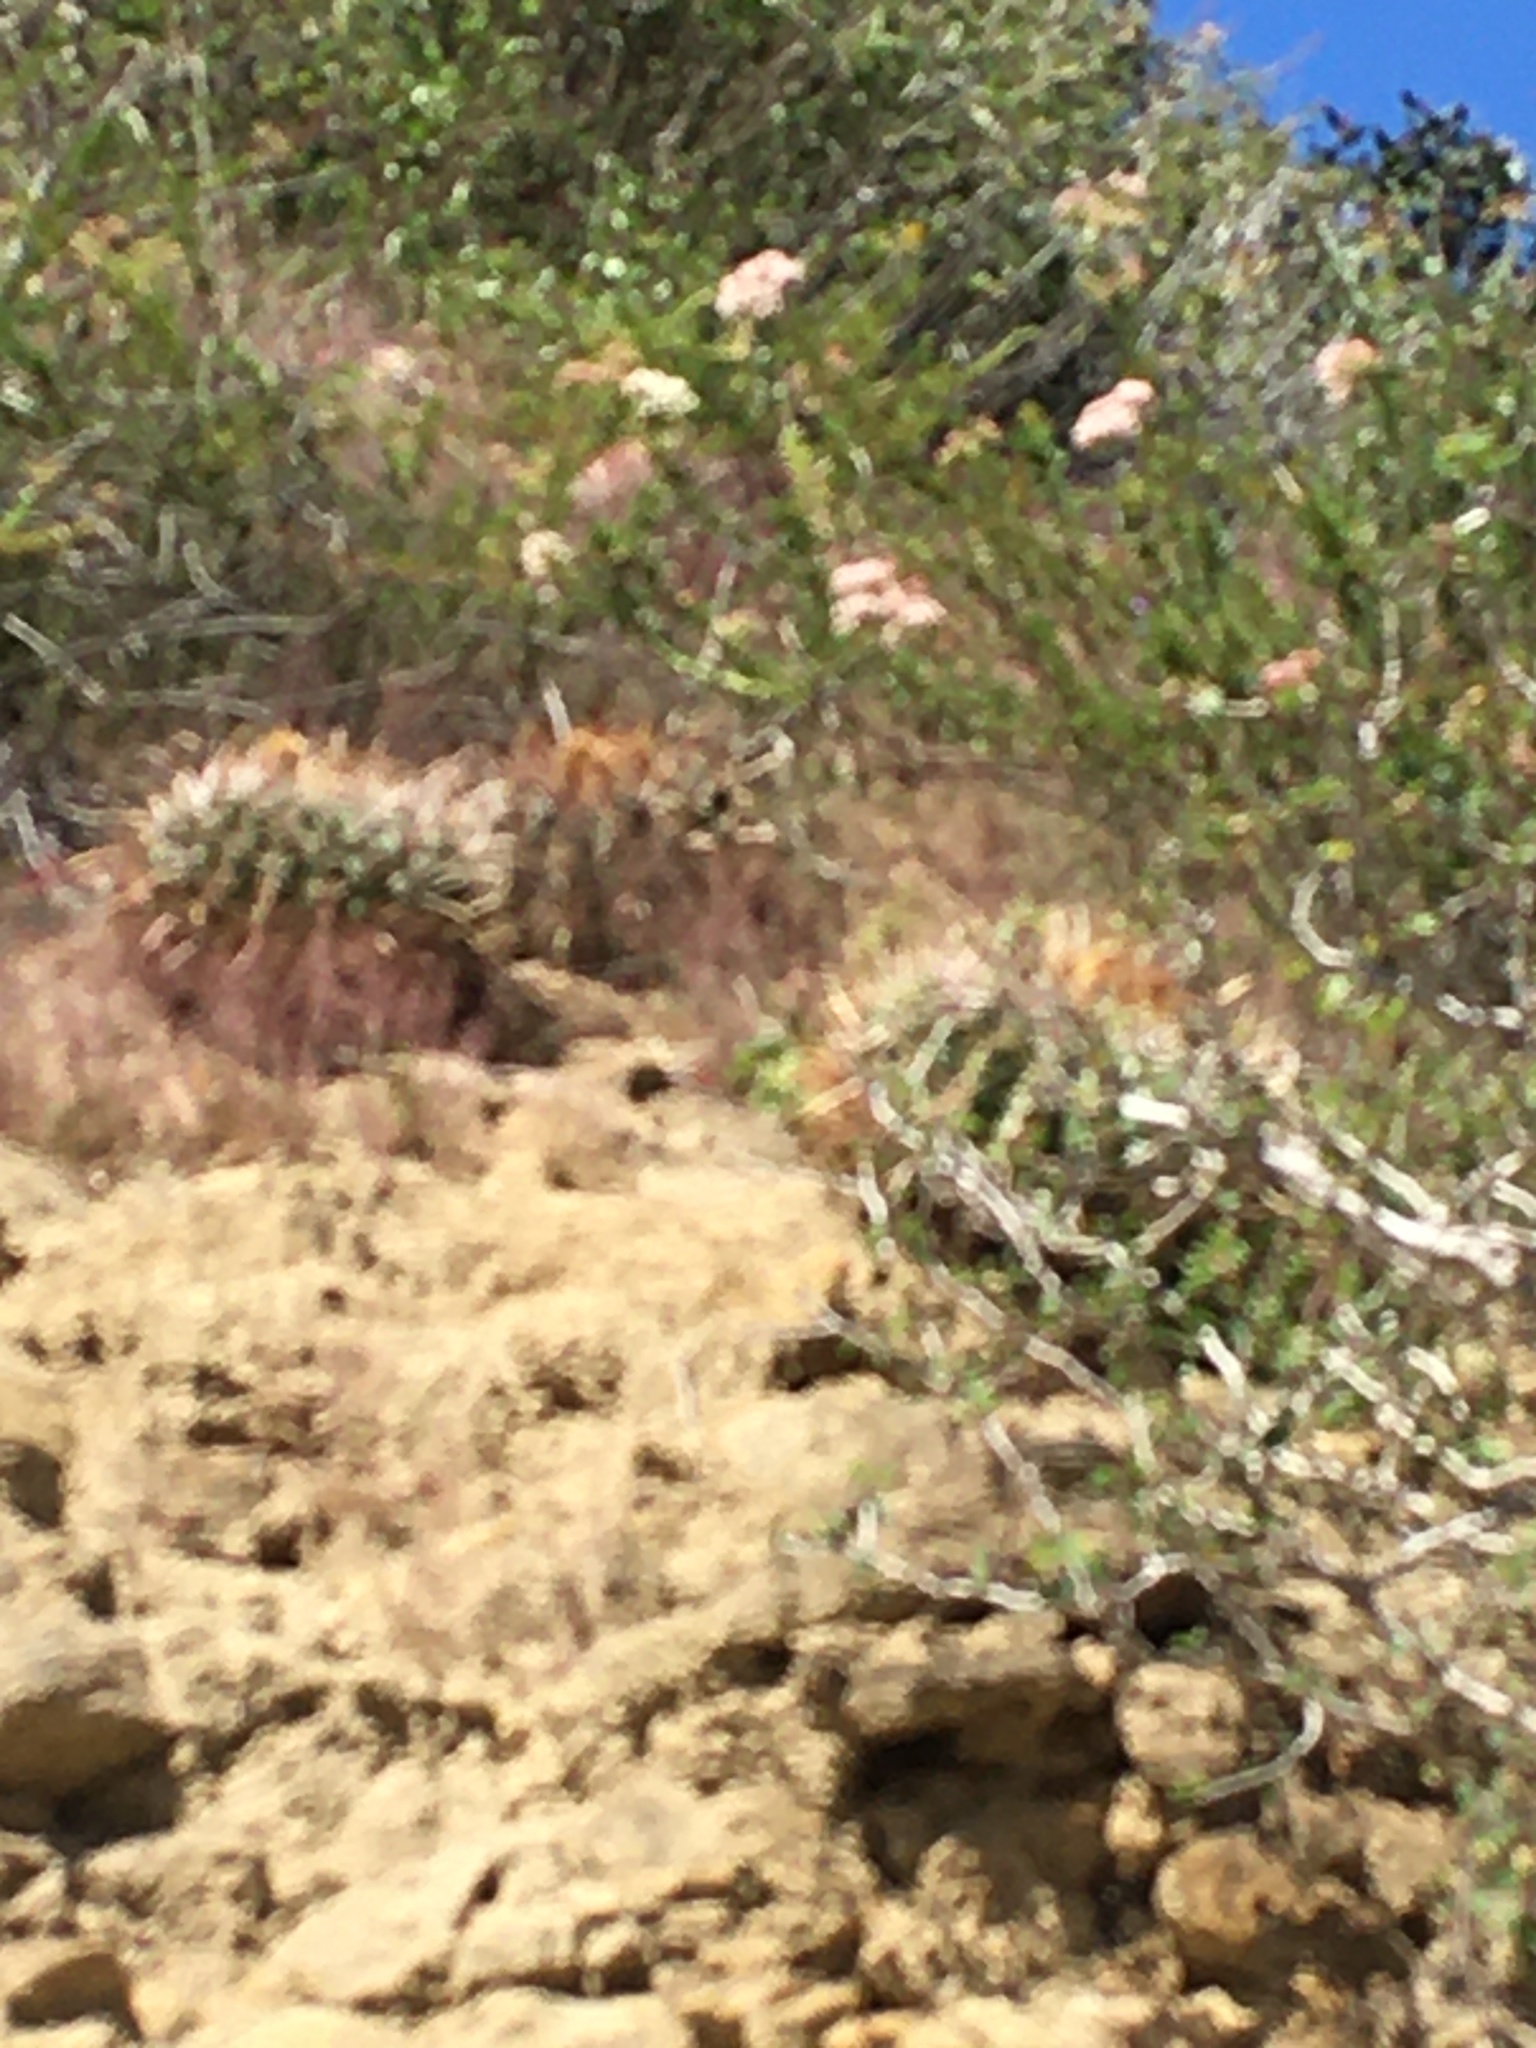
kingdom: Plantae
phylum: Tracheophyta
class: Magnoliopsida
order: Caryophyllales
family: Cactaceae
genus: Ferocactus
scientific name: Ferocactus viridescens
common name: San diego barrel cactus
